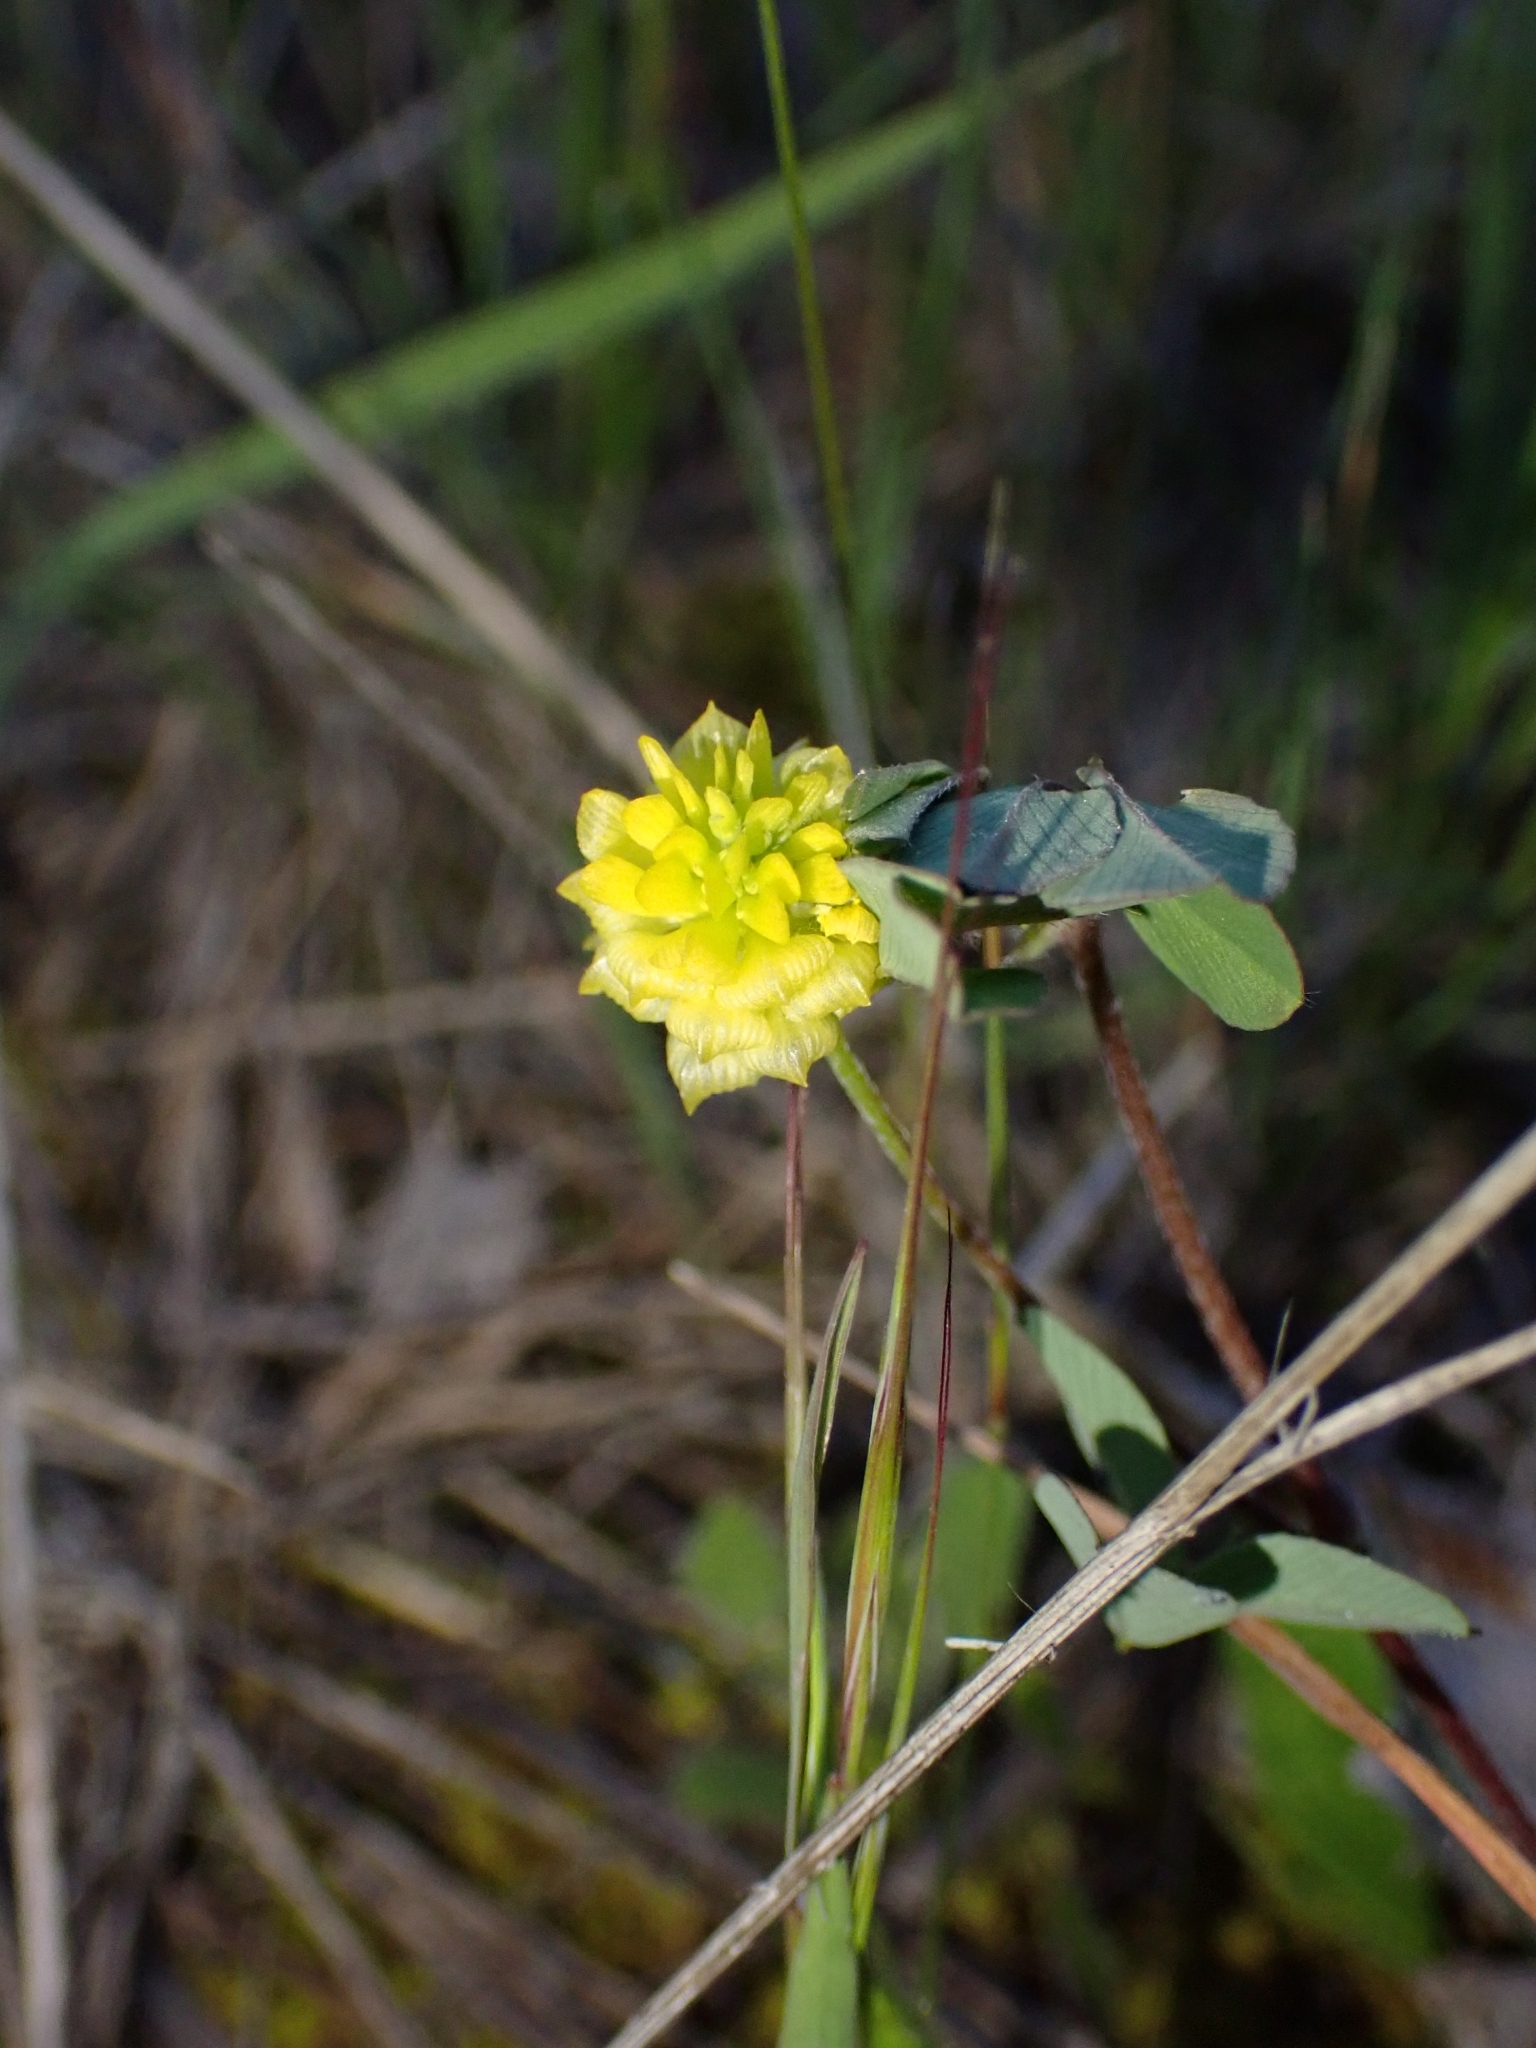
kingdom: Plantae
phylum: Tracheophyta
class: Magnoliopsida
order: Fabales
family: Fabaceae
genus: Trifolium
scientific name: Trifolium campestre
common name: Field clover
